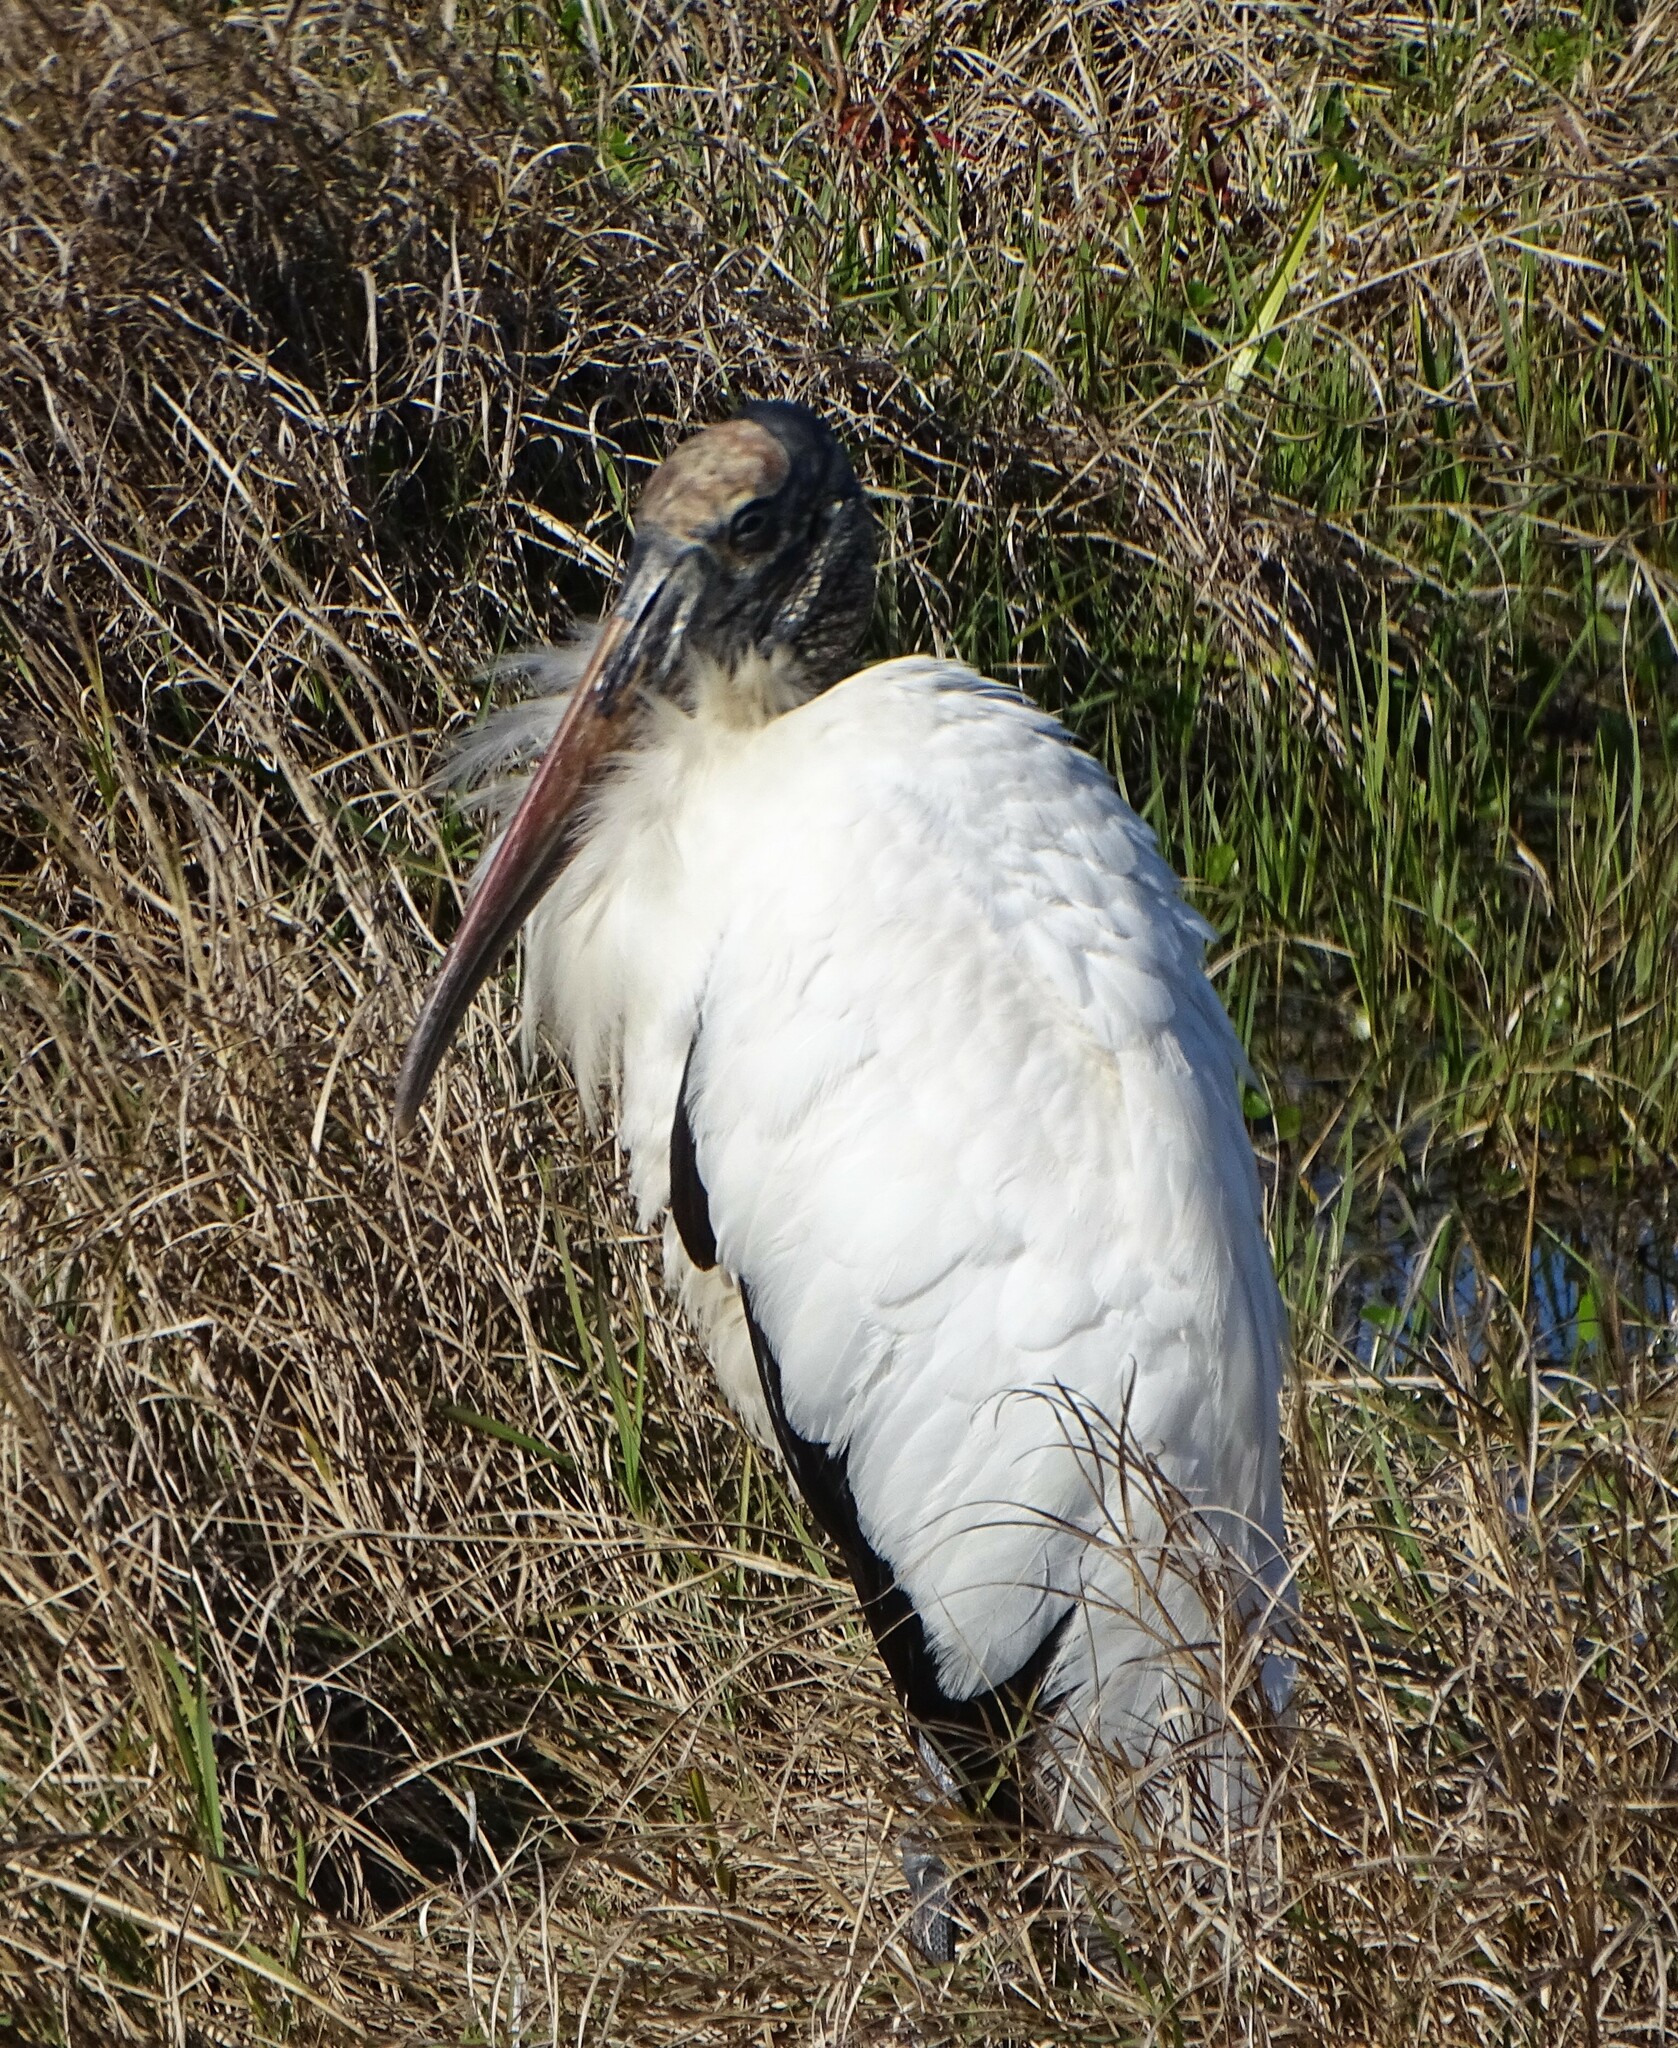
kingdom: Animalia
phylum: Chordata
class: Aves
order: Ciconiiformes
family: Ciconiidae
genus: Mycteria
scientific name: Mycteria americana
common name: Wood stork
